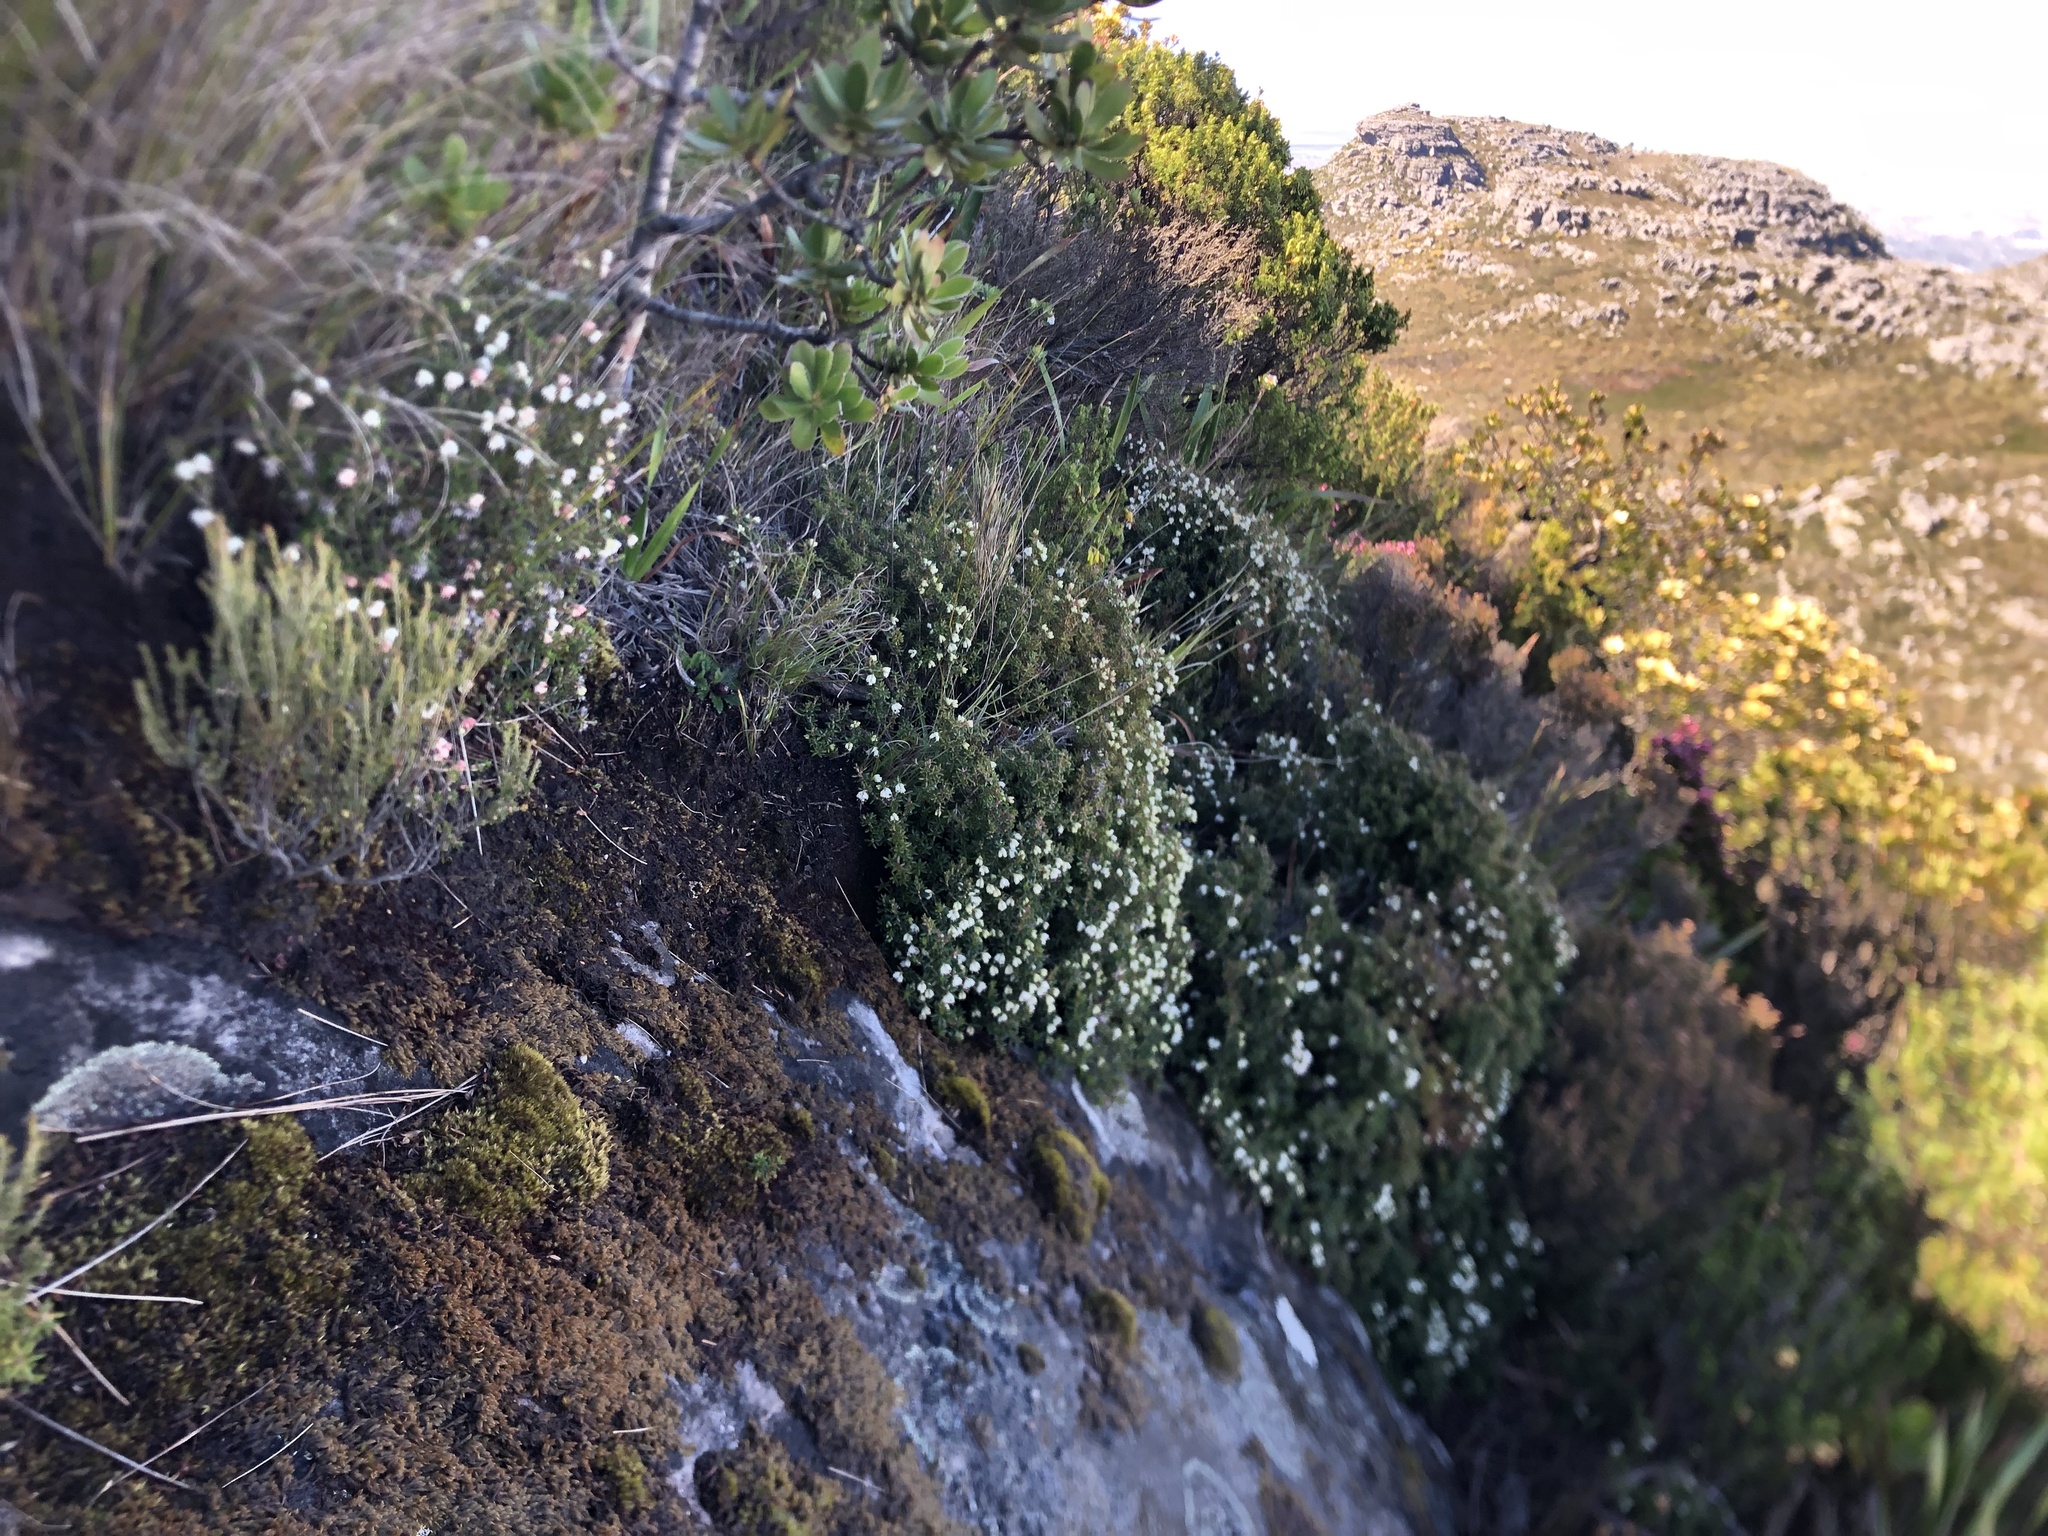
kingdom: Plantae
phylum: Tracheophyta
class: Magnoliopsida
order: Ericales
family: Ericaceae
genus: Erica
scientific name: Erica petiolaris
